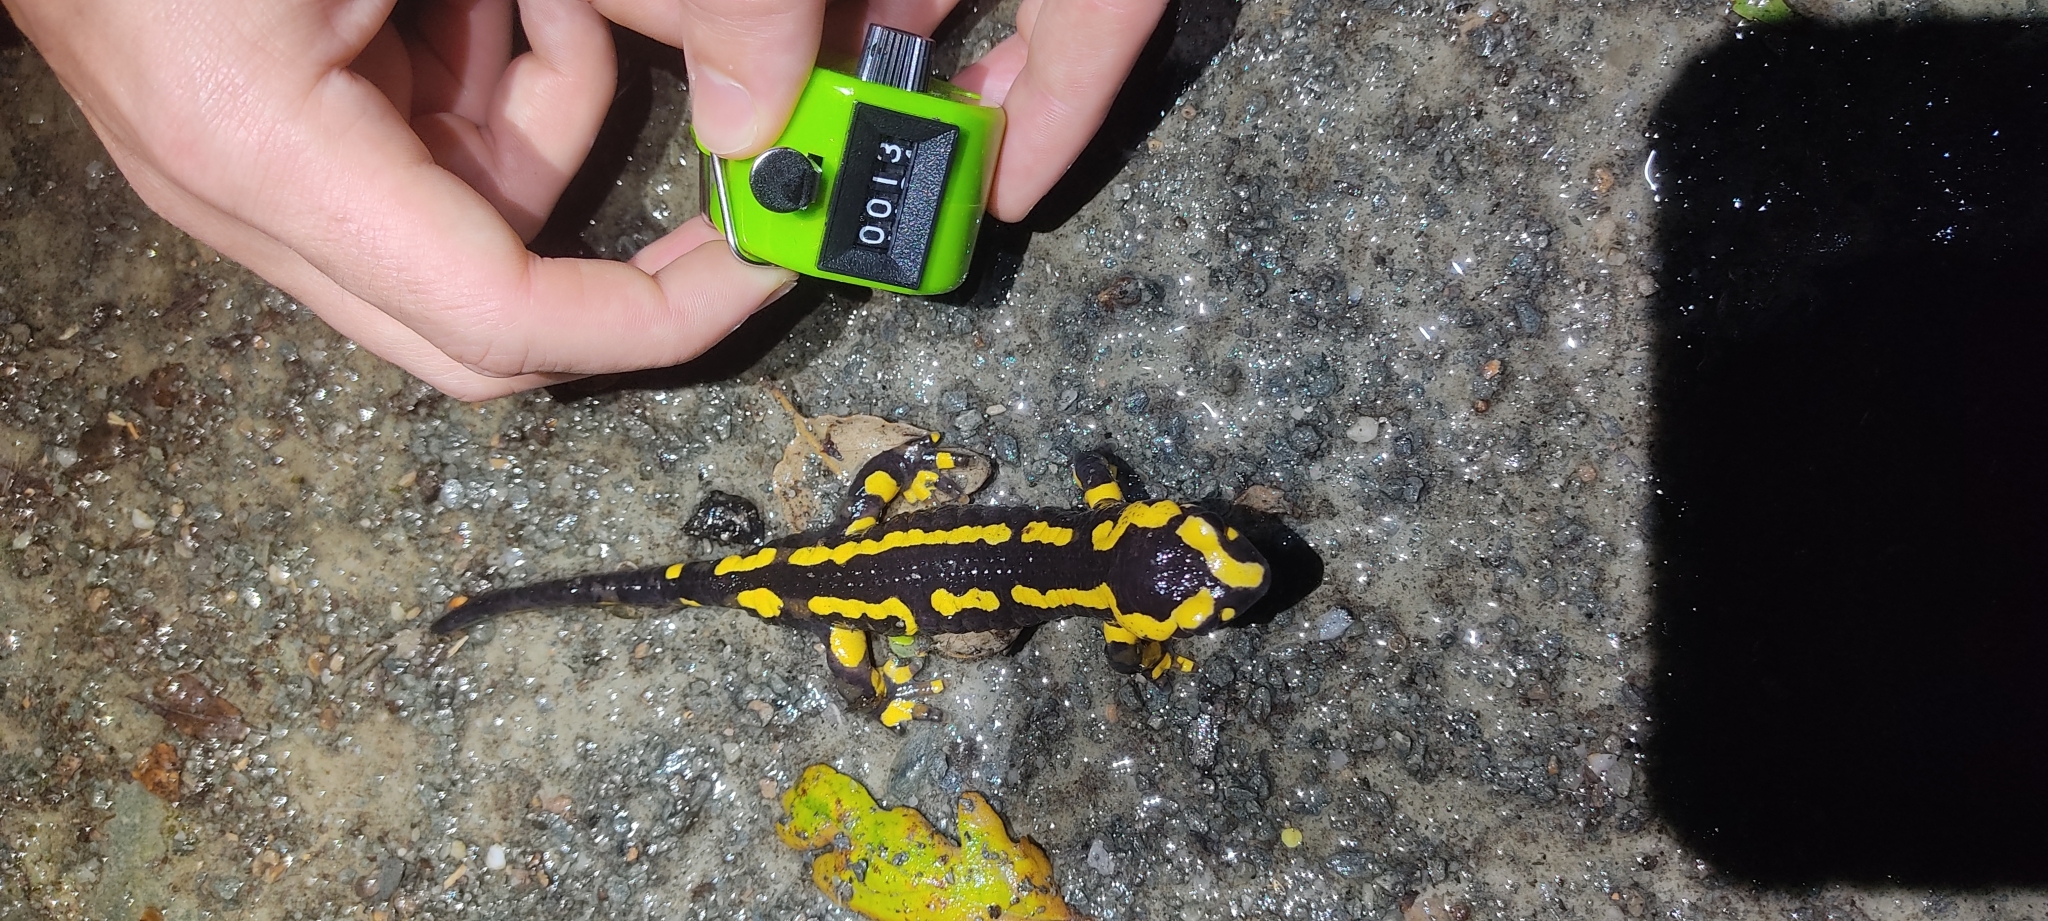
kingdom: Animalia
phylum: Chordata
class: Amphibia
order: Caudata
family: Salamandridae
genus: Salamandra
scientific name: Salamandra salamandra
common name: Fire salamander
